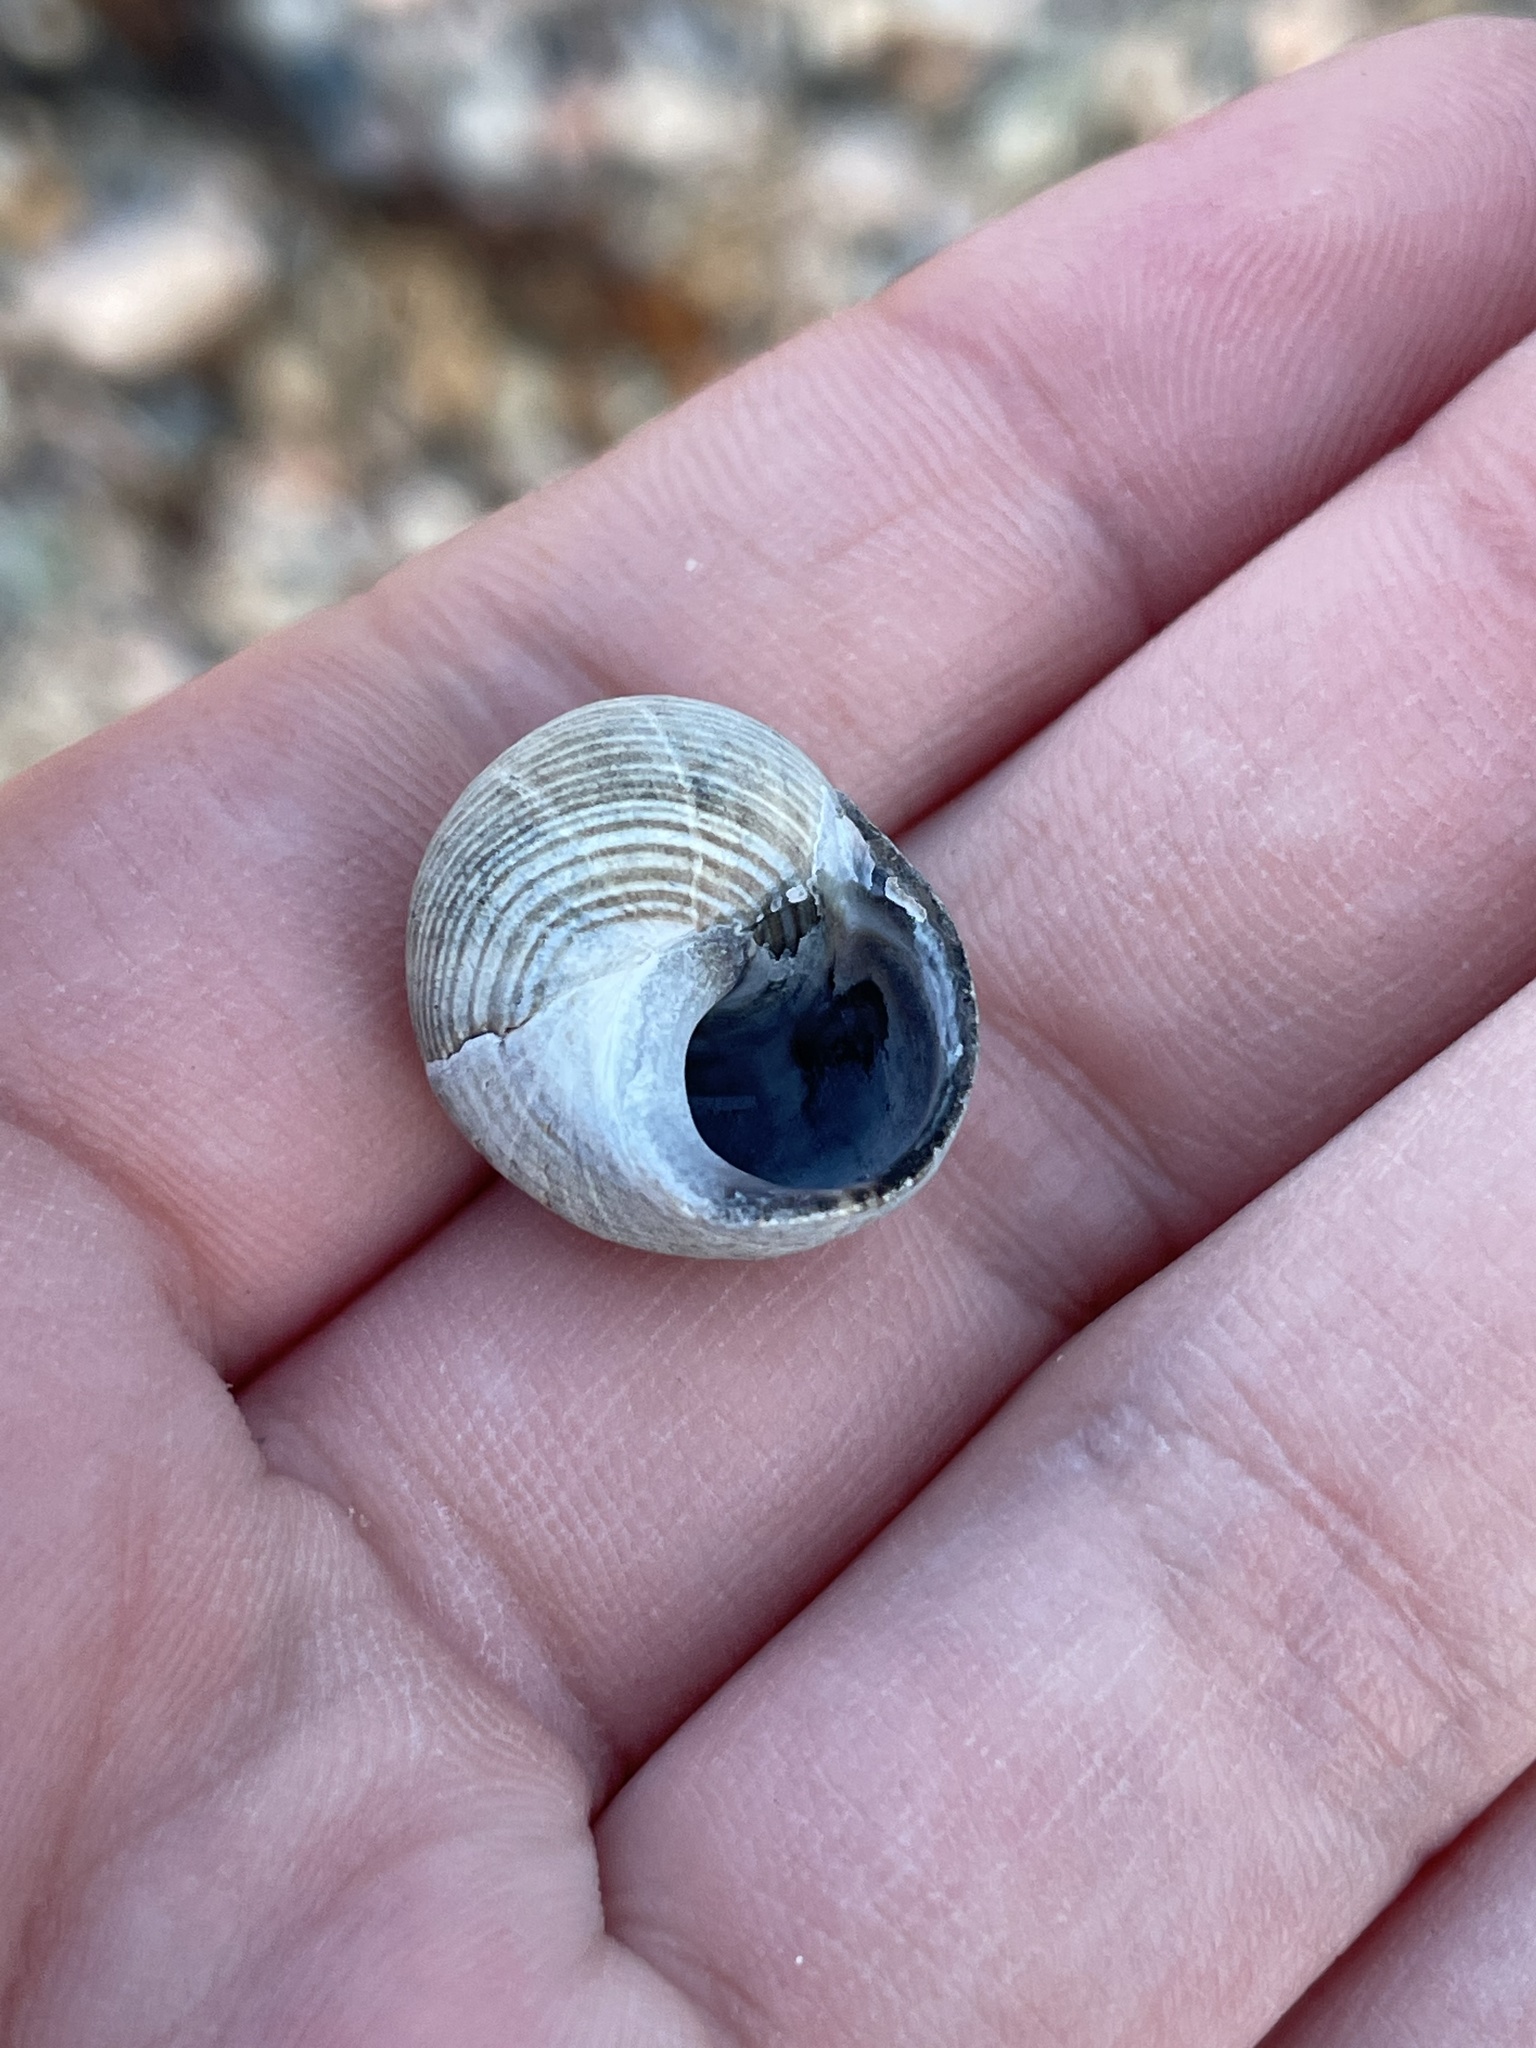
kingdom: Animalia
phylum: Mollusca
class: Gastropoda
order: Littorinimorpha
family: Littorinidae
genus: Littorina
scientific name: Littorina littorea
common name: Common periwinkle
